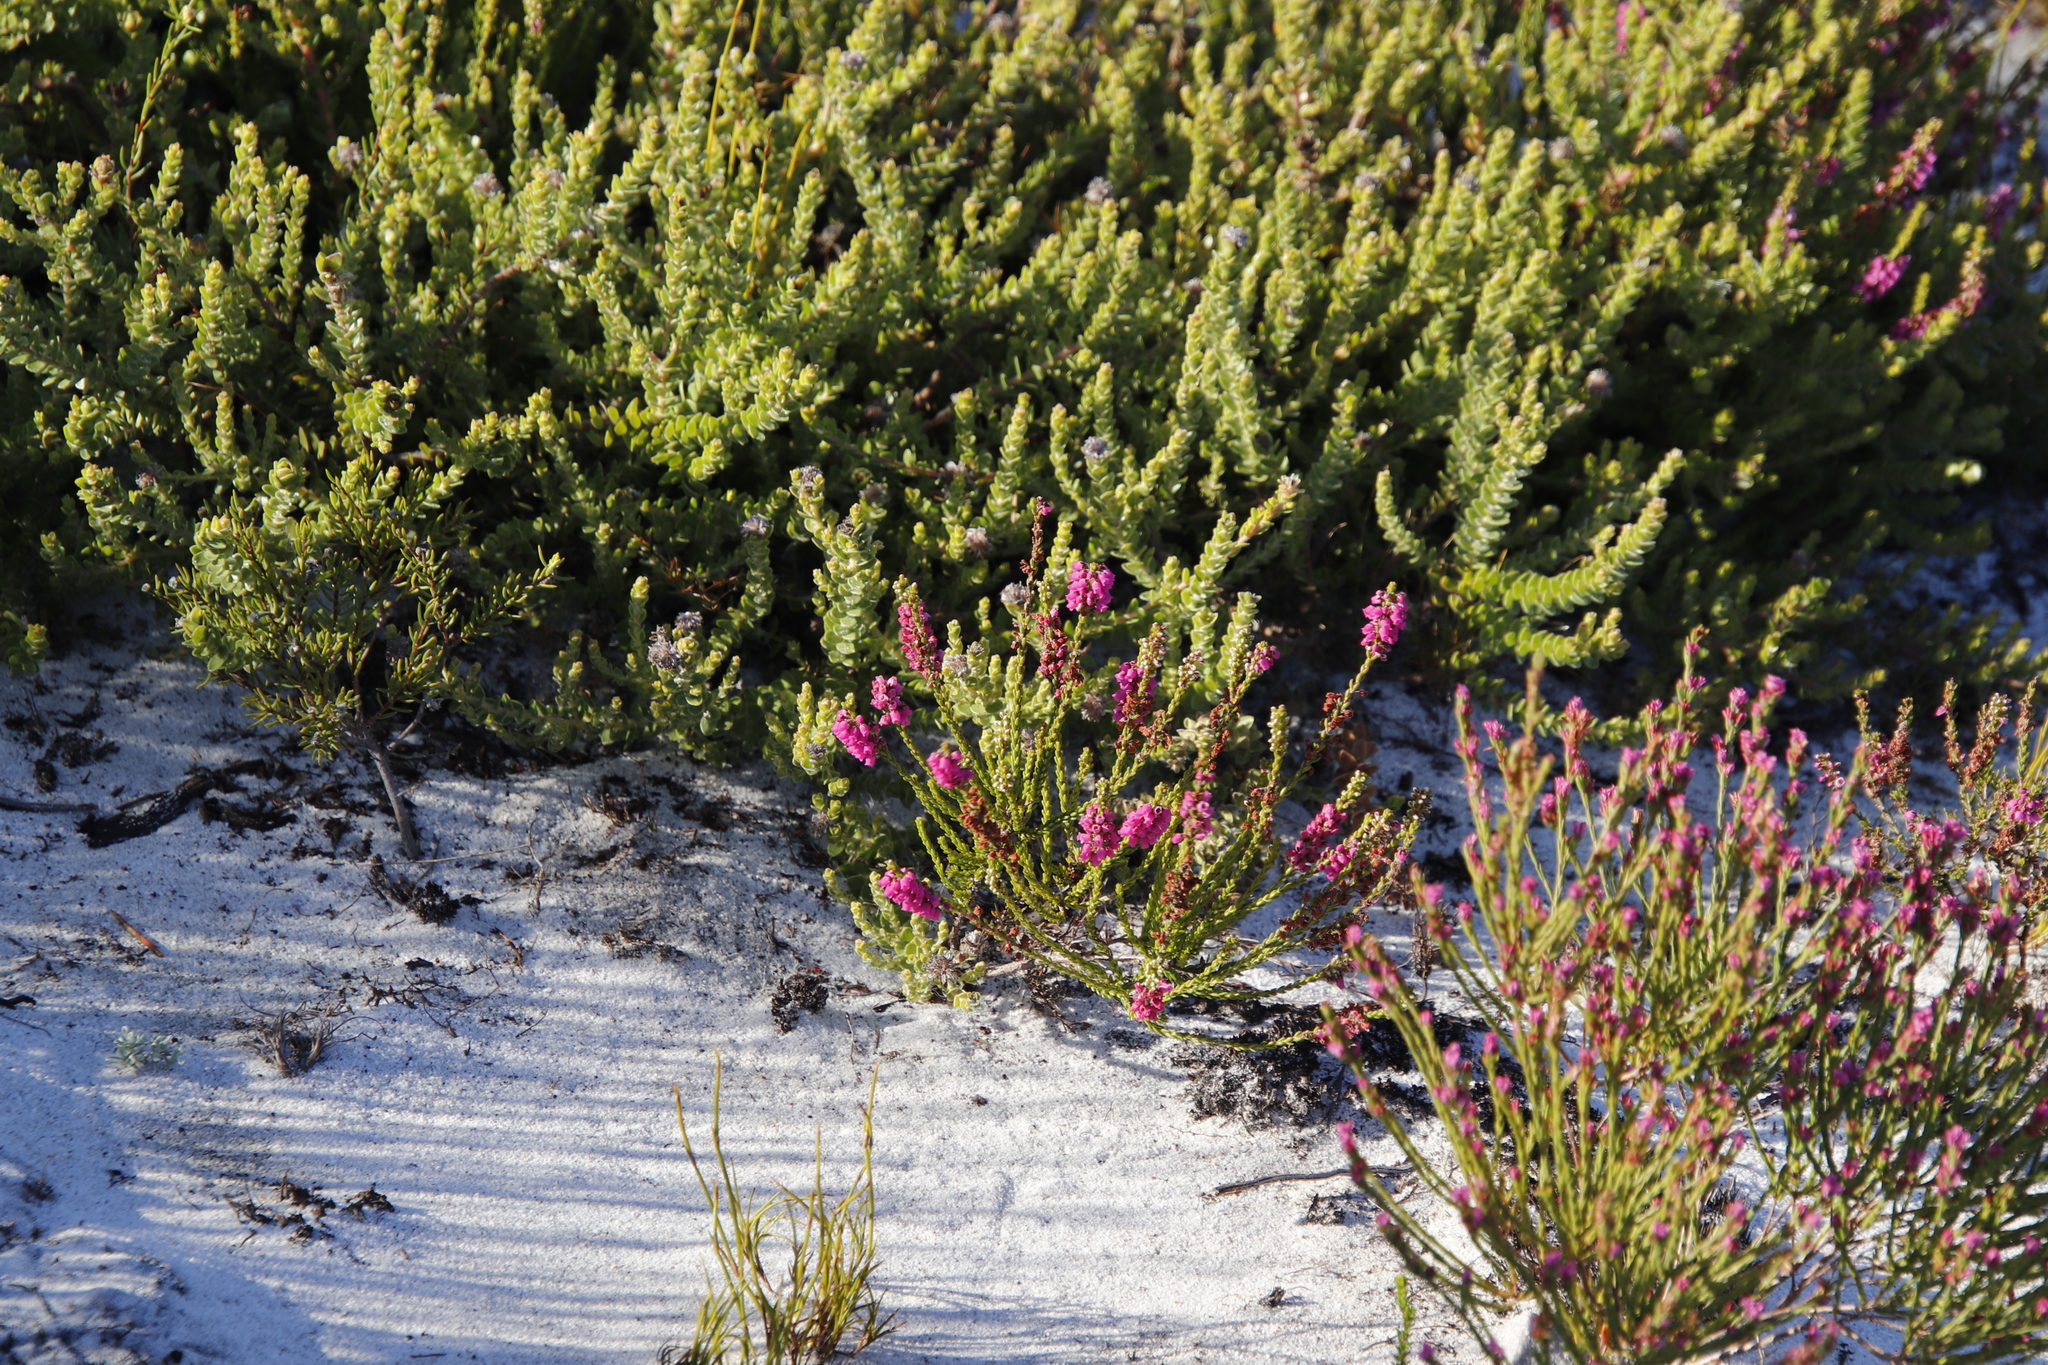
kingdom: Plantae
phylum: Tracheophyta
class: Magnoliopsida
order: Ericales
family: Ericaceae
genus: Erica
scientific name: Erica pulchella
